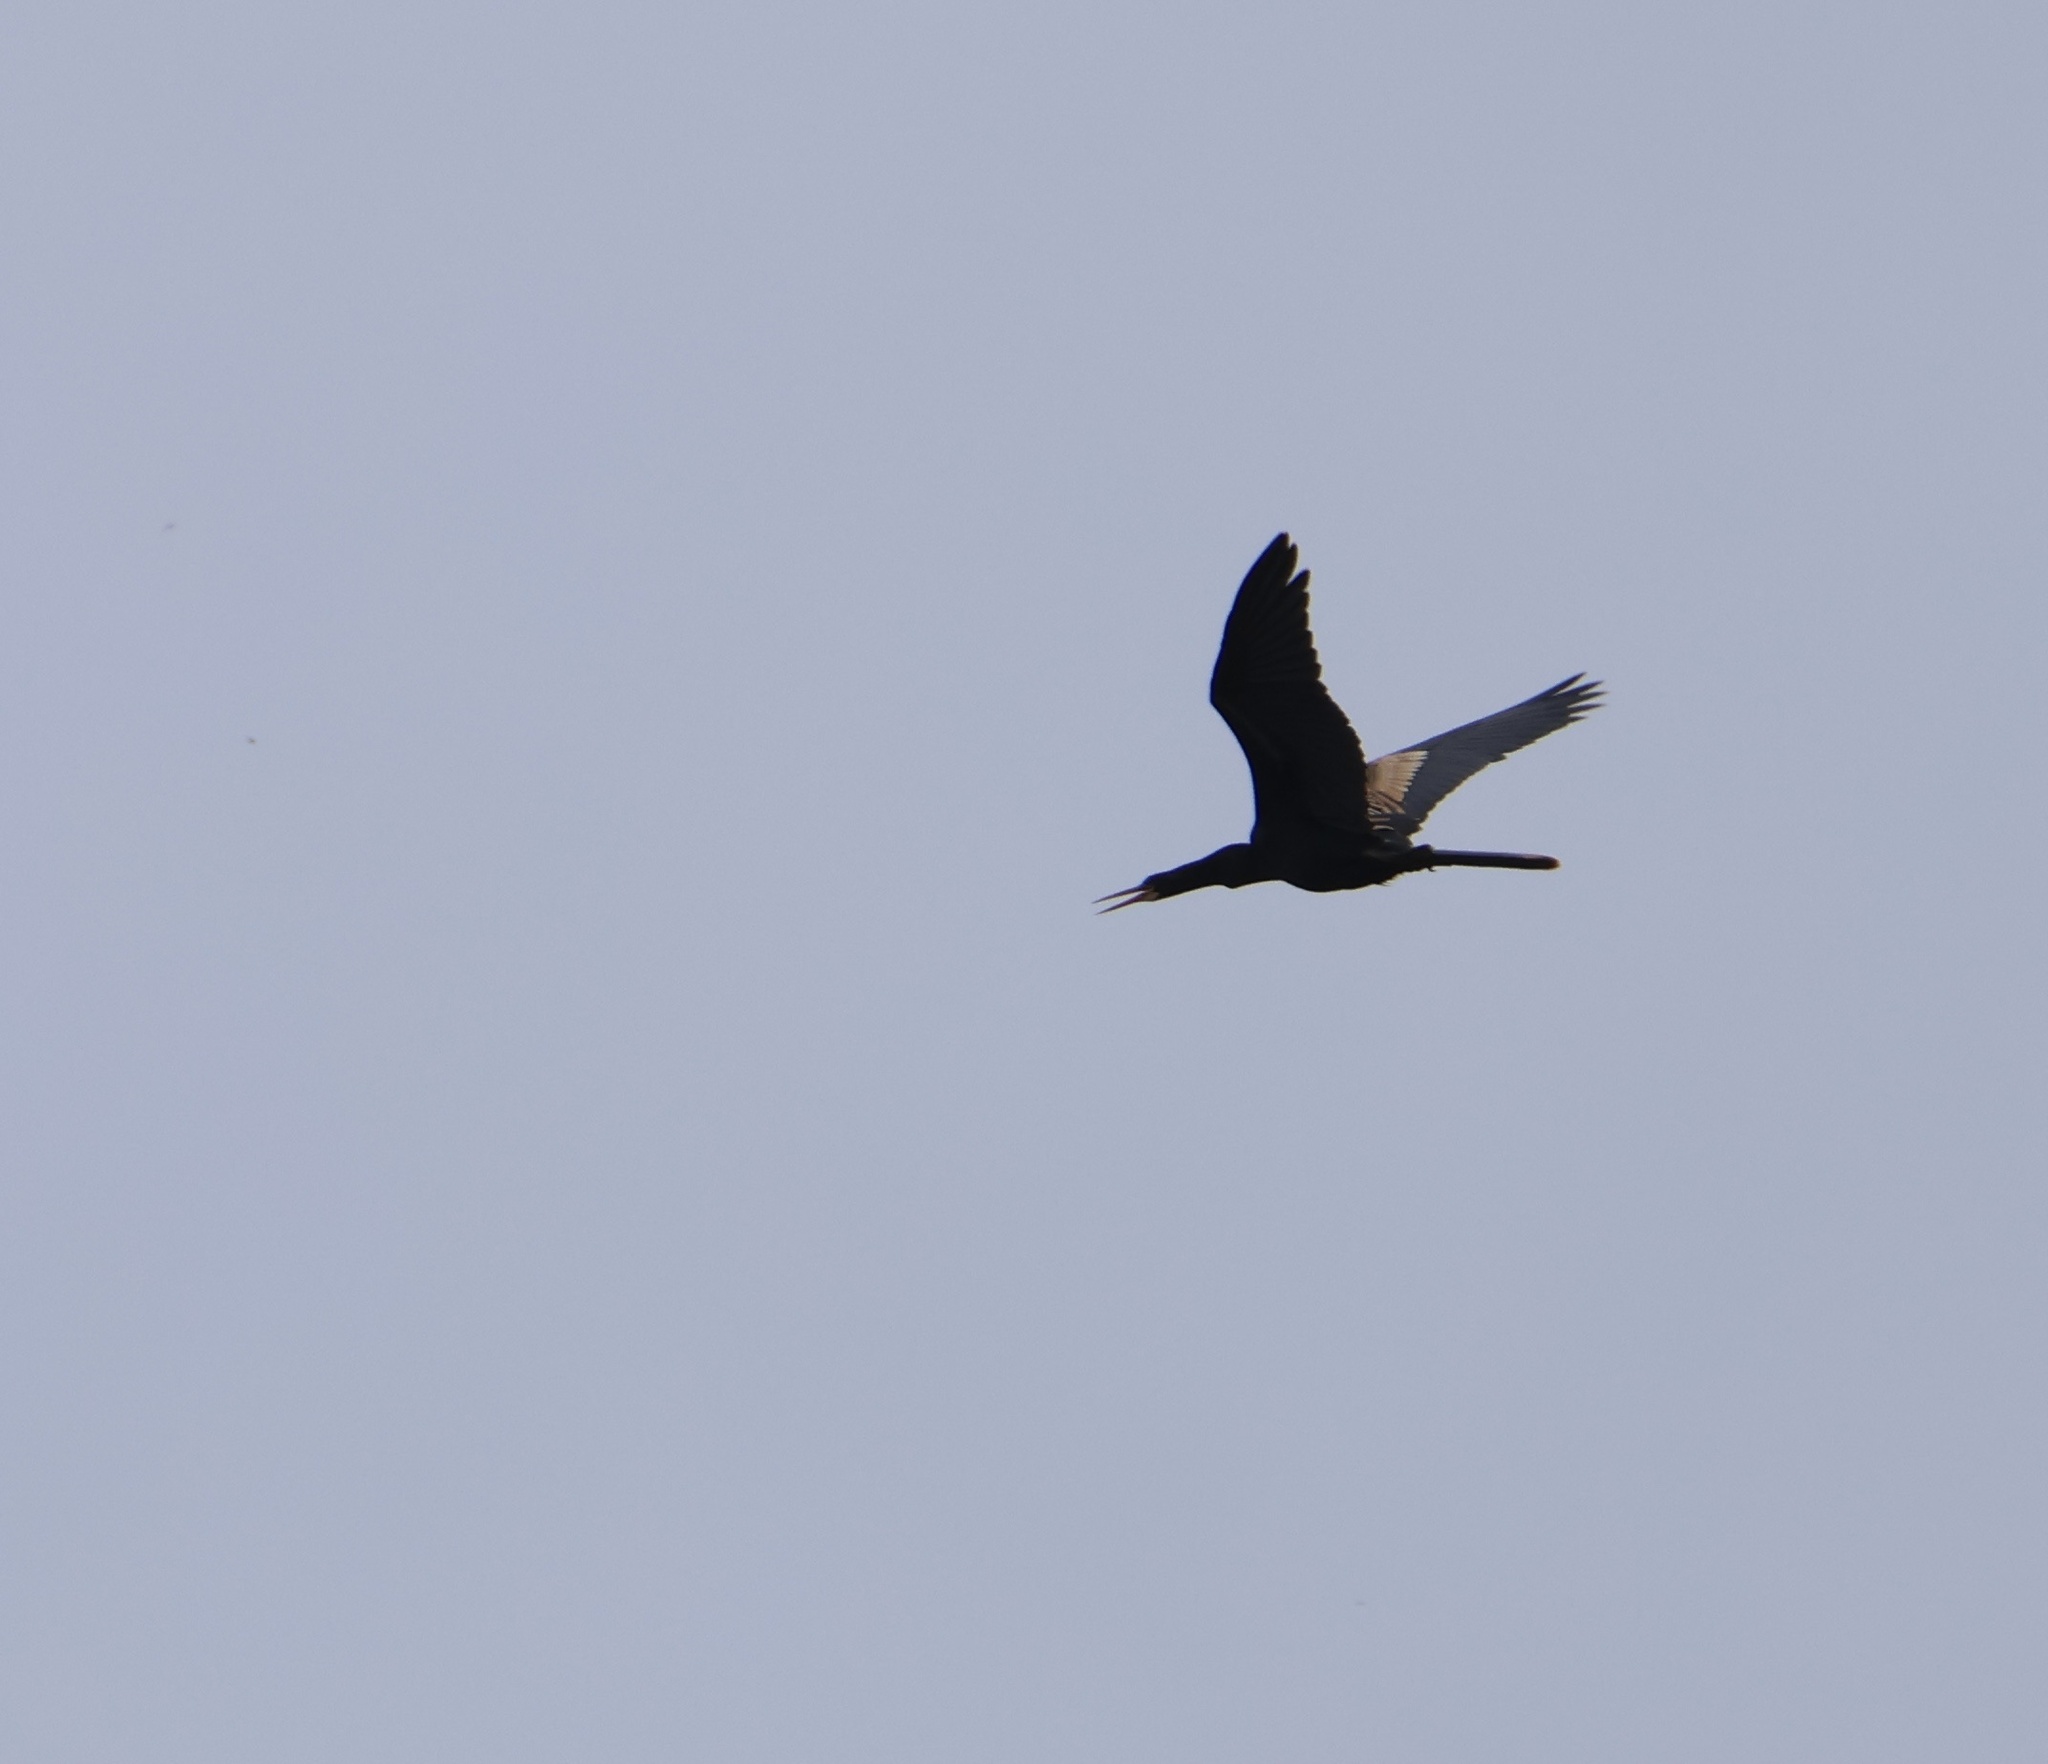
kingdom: Animalia
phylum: Chordata
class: Aves
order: Suliformes
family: Anhingidae
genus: Anhinga
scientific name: Anhinga anhinga
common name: Anhinga
